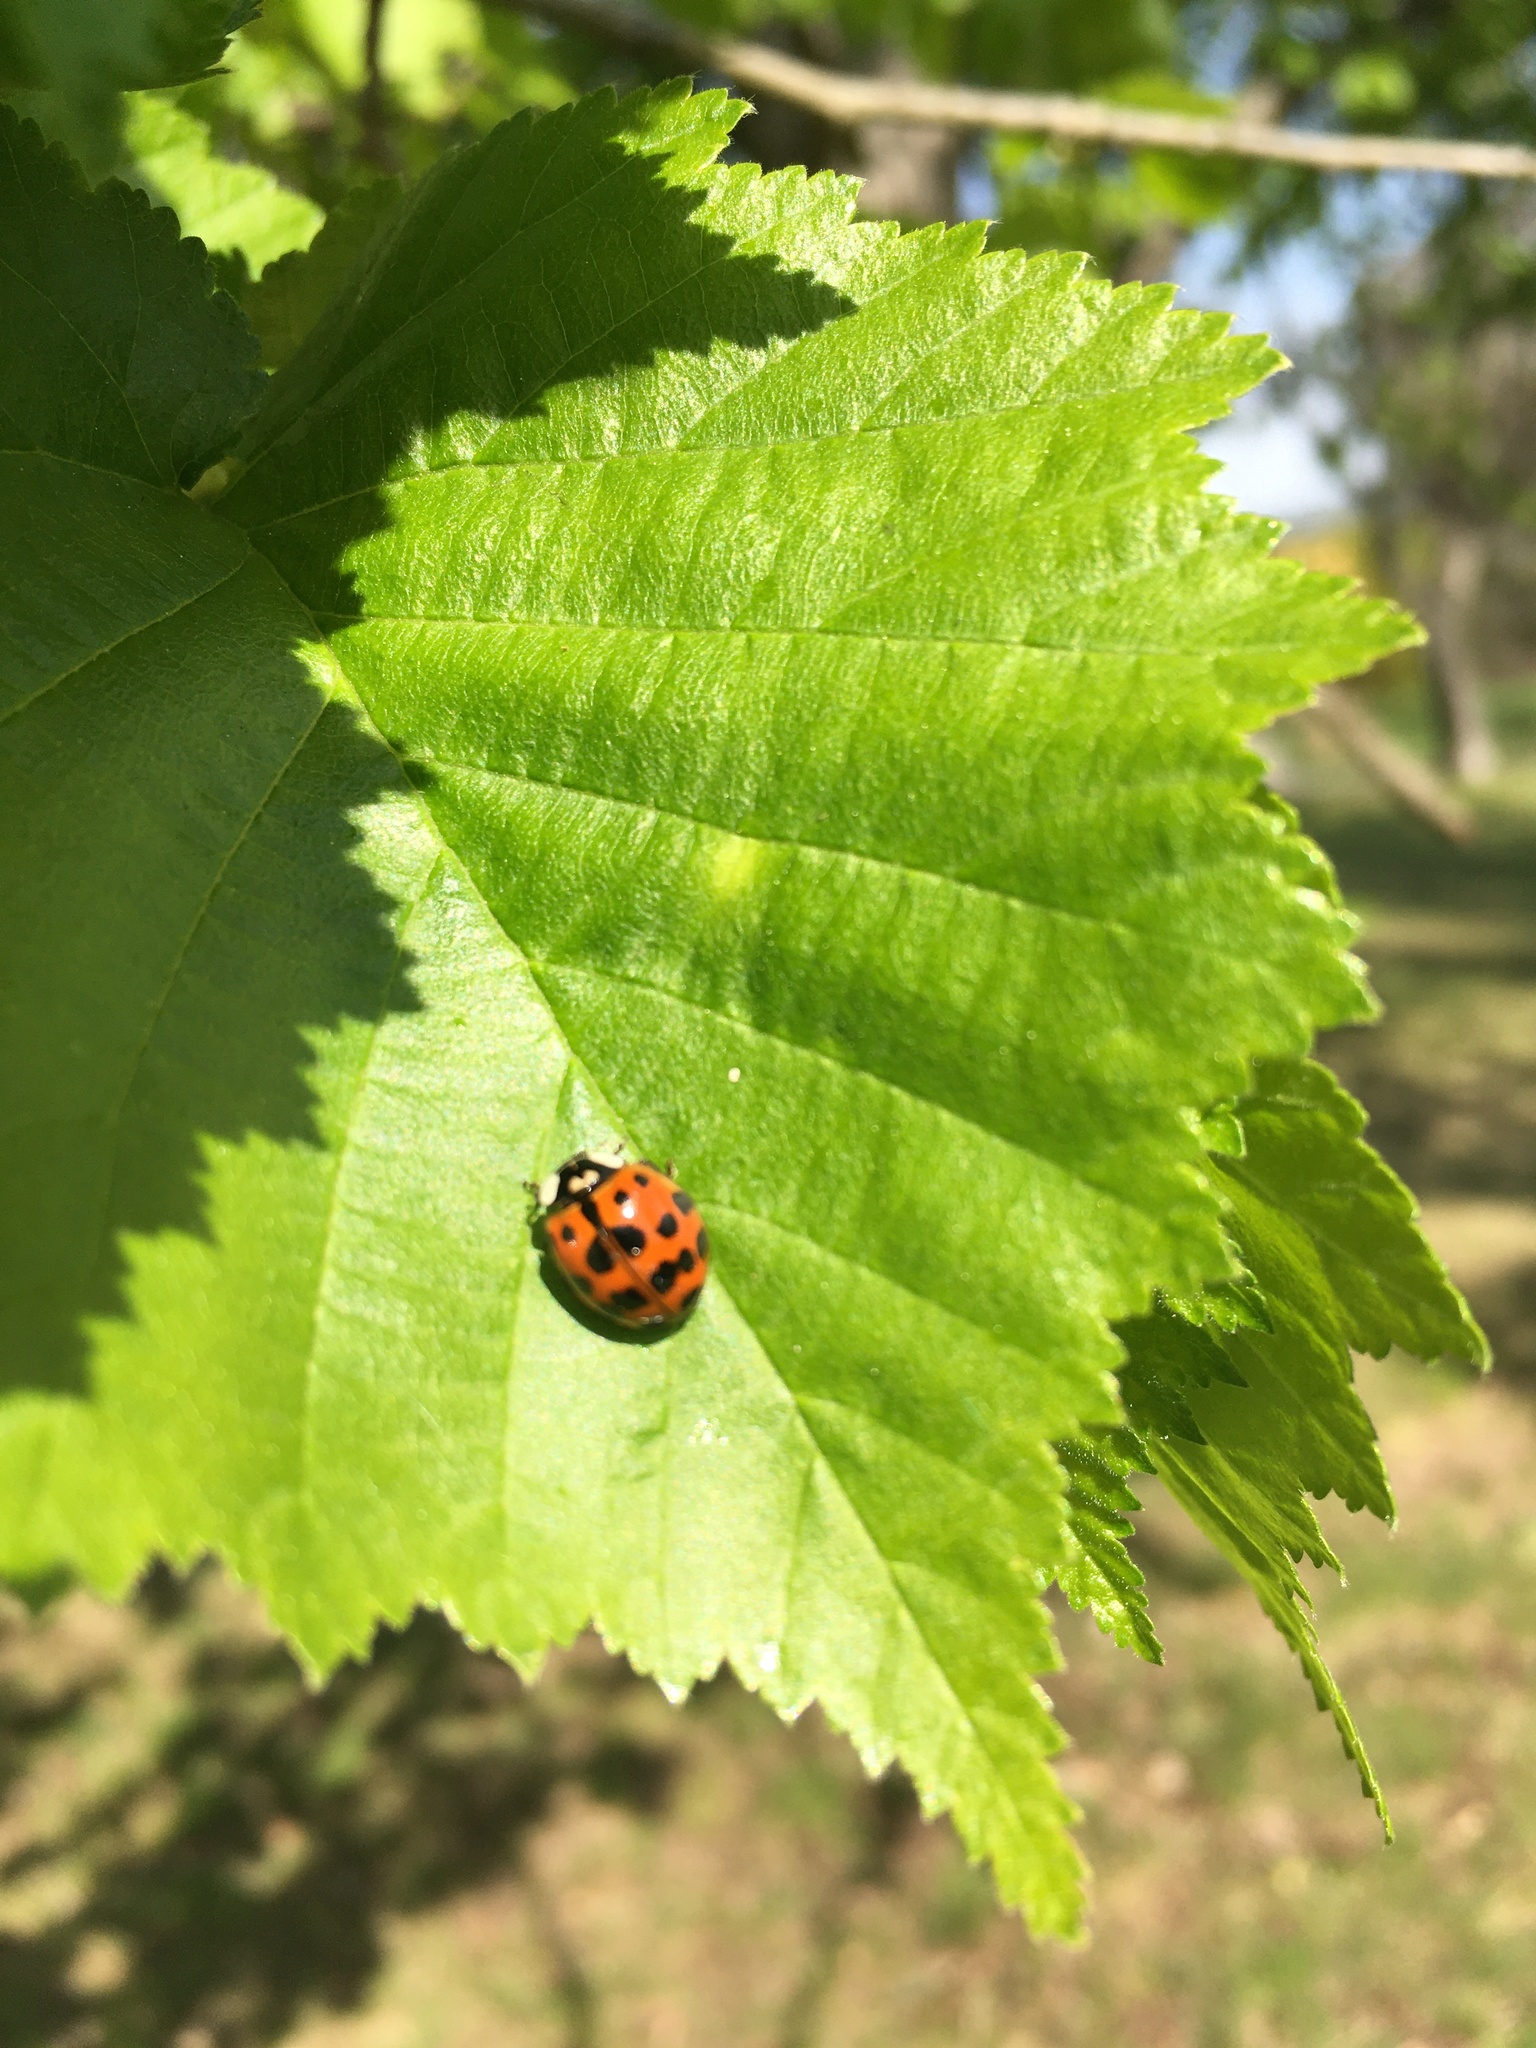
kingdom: Animalia
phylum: Arthropoda
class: Insecta
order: Coleoptera
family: Coccinellidae
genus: Harmonia
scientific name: Harmonia axyridis
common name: Harlequin ladybird
